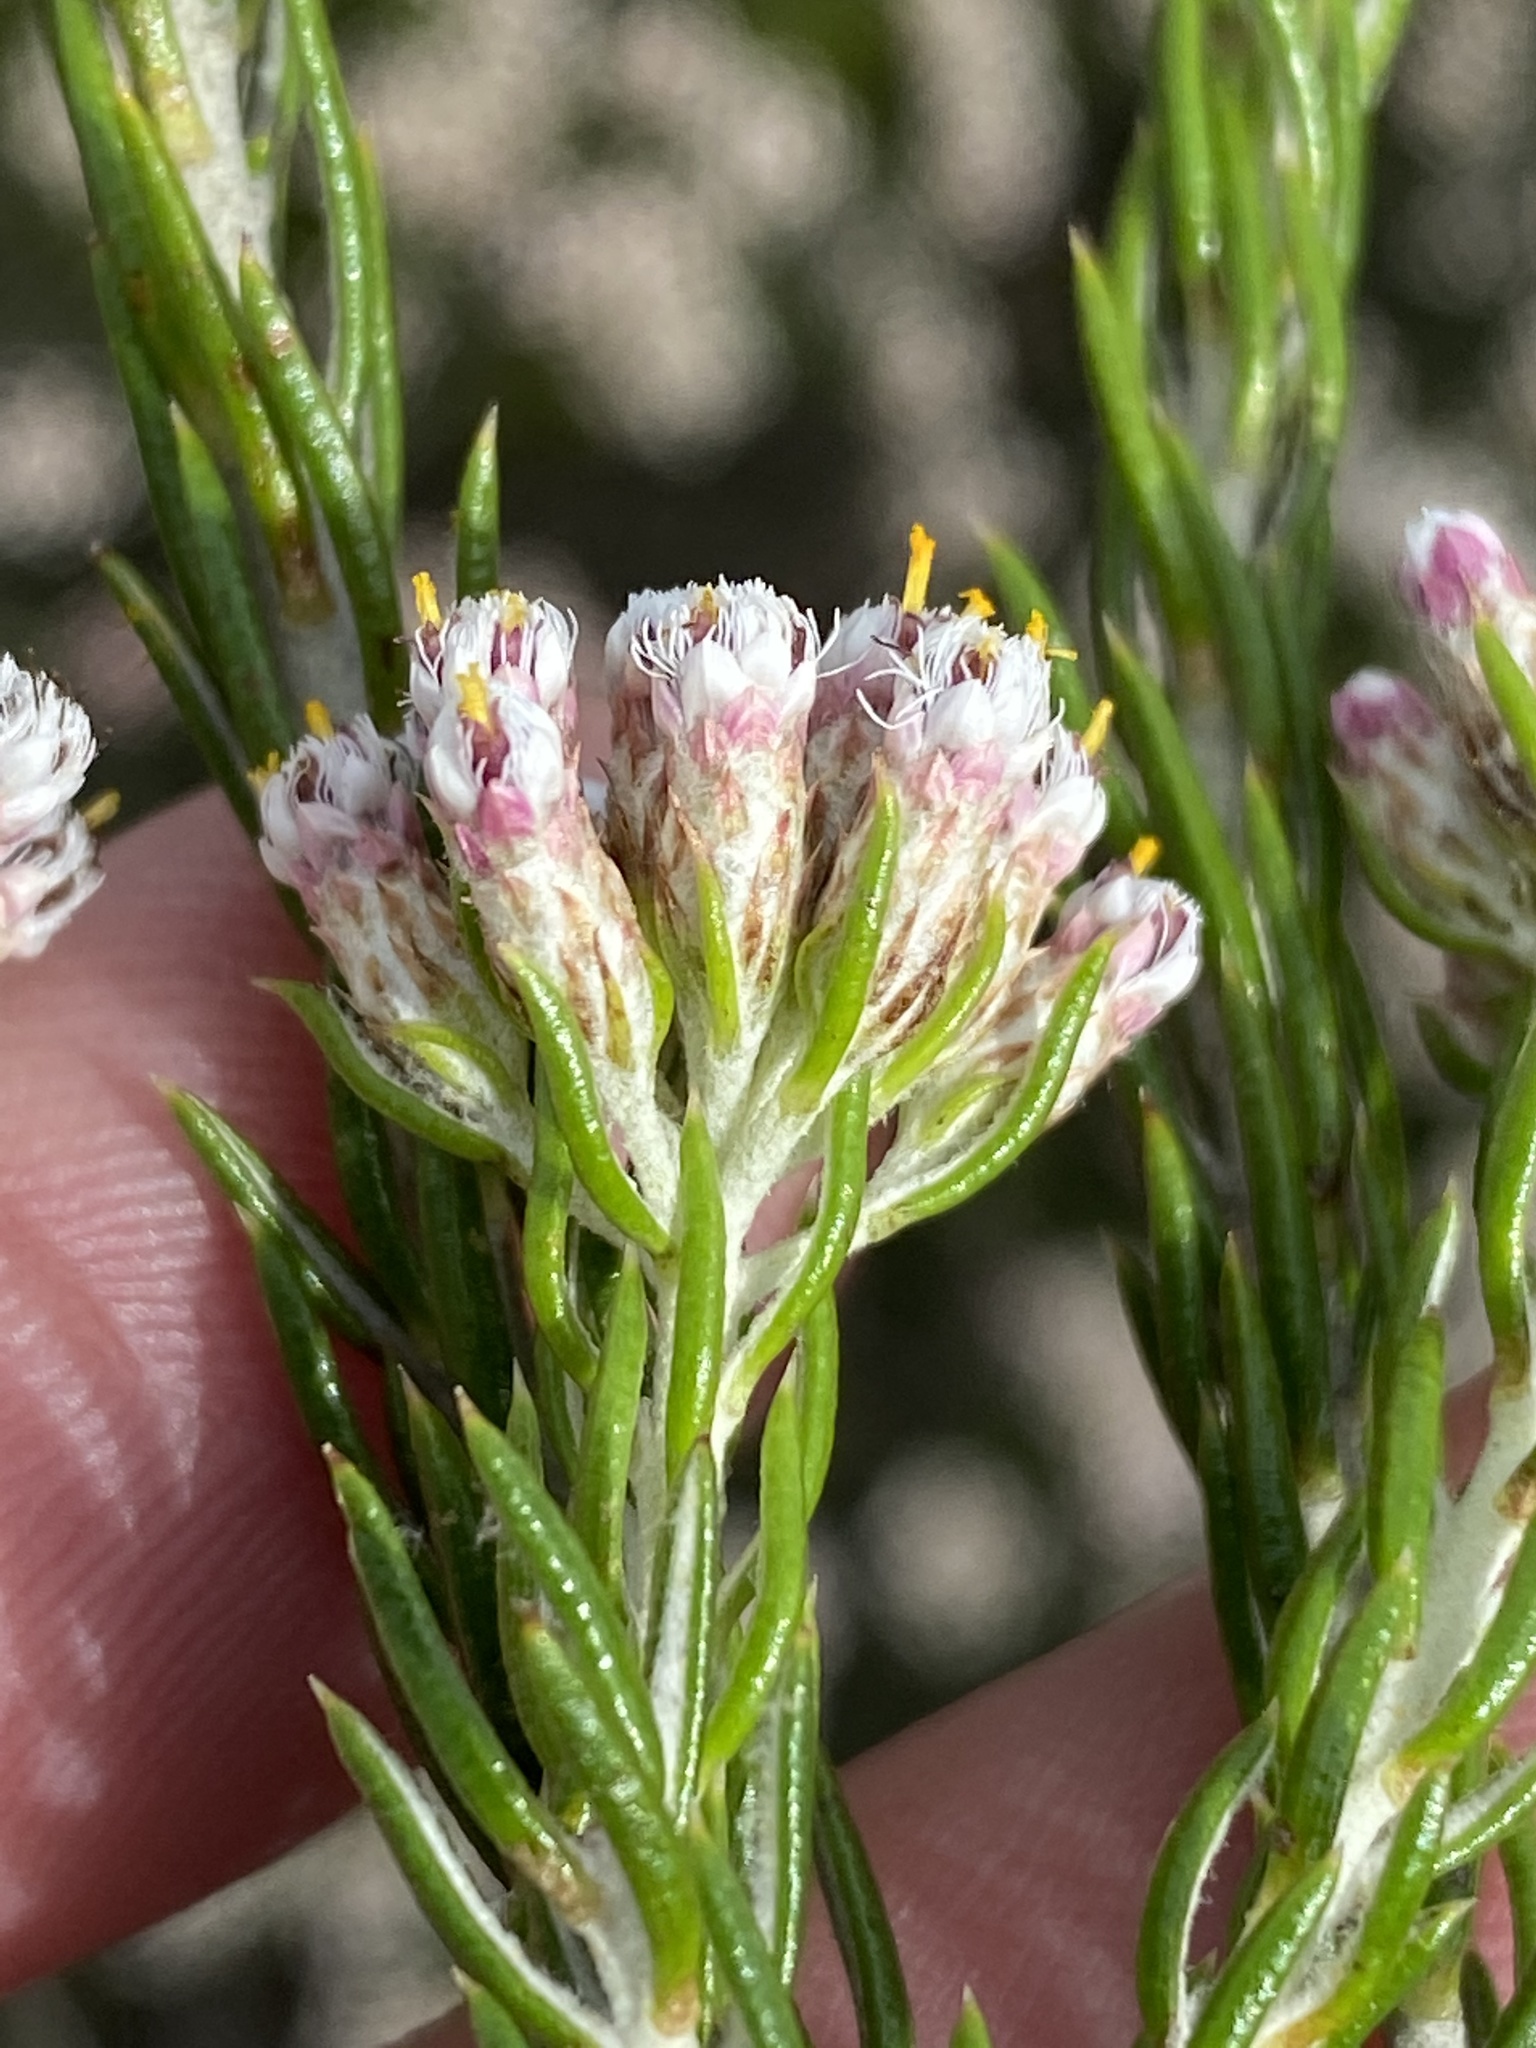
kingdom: Plantae
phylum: Tracheophyta
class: Magnoliopsida
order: Asterales
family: Asteraceae
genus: Metalasia
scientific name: Metalasia pallida
